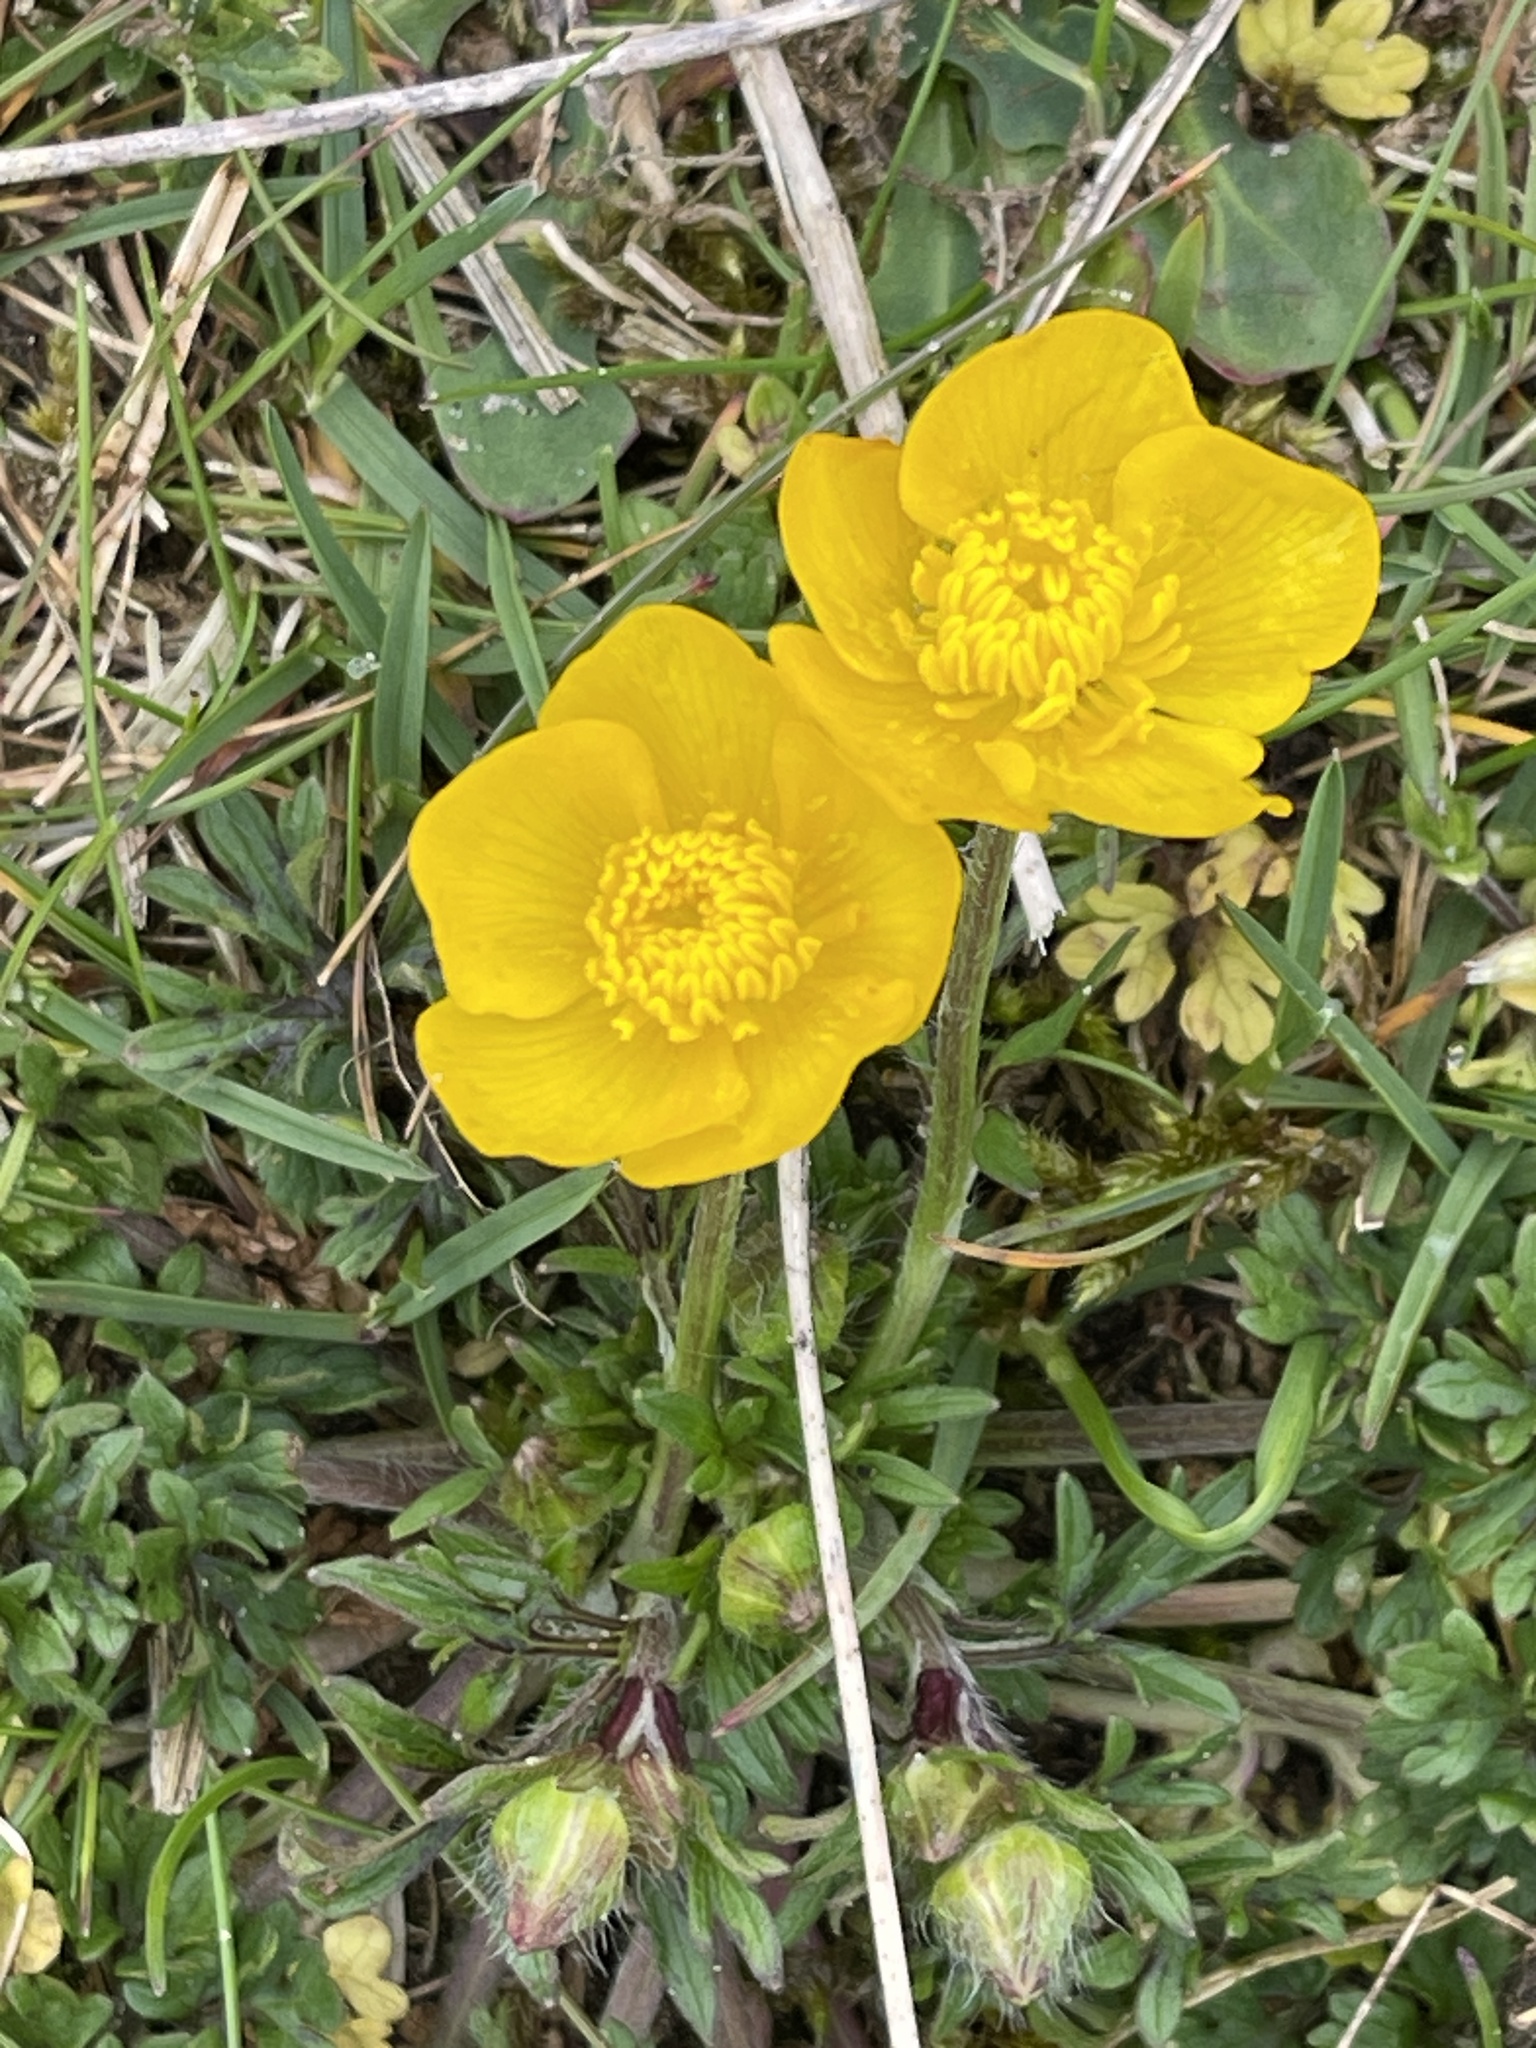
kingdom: Plantae
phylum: Tracheophyta
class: Magnoliopsida
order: Ranunculales
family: Ranunculaceae
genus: Ranunculus
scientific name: Ranunculus bulbosus
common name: Bulbous buttercup
